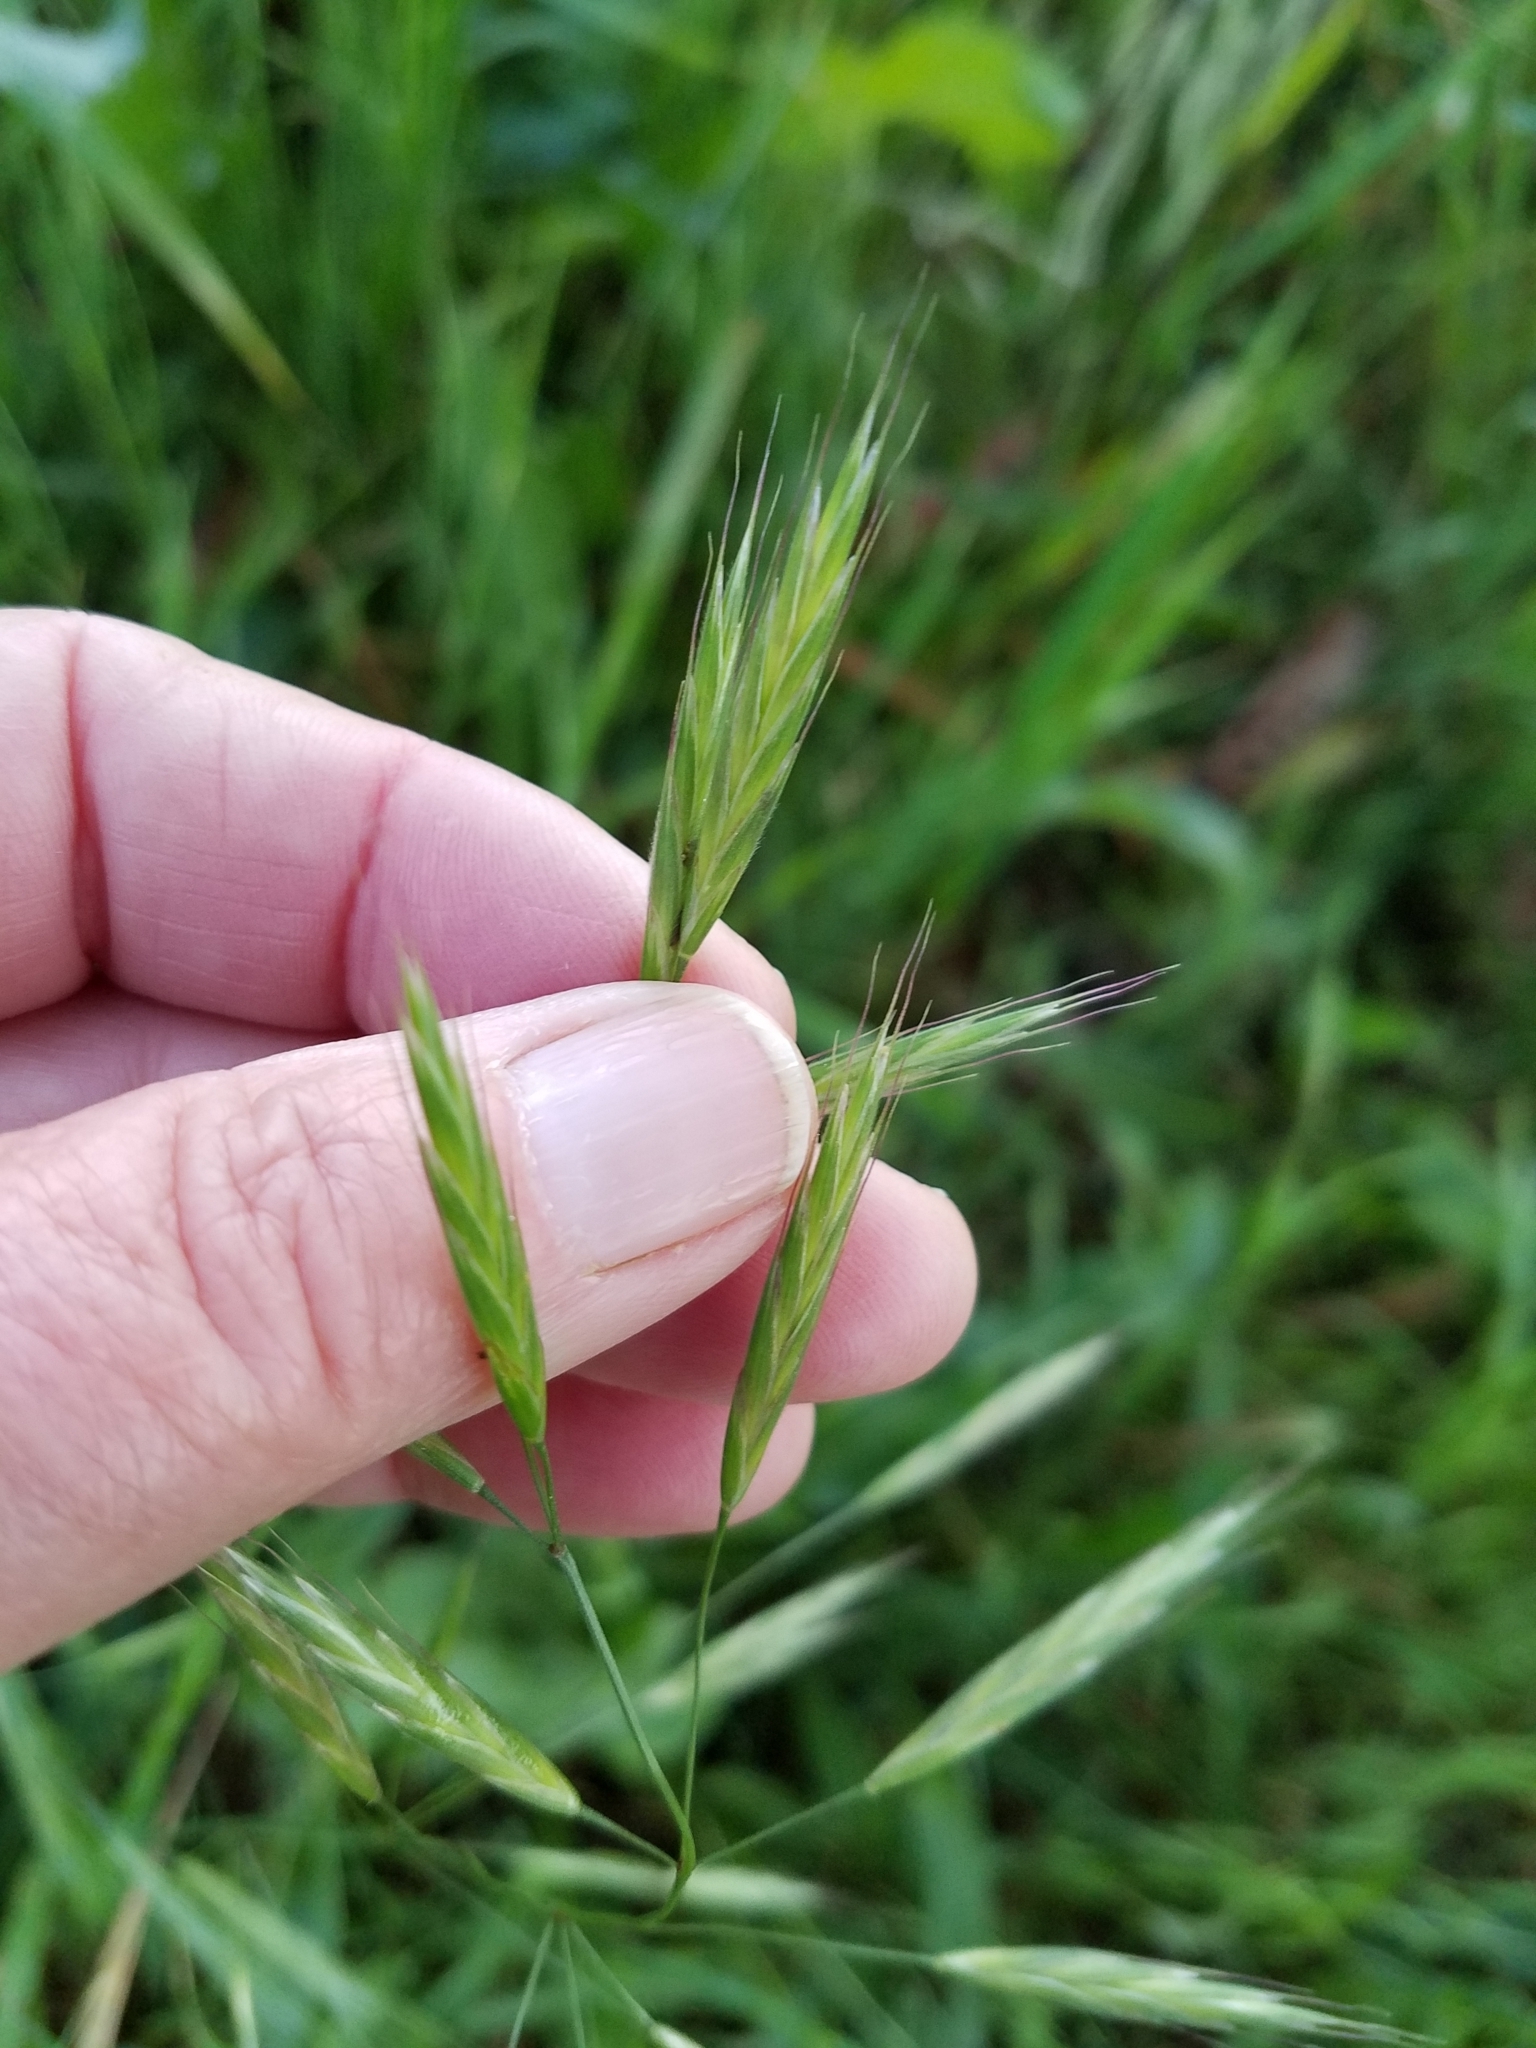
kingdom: Plantae
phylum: Tracheophyta
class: Liliopsida
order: Poales
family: Poaceae
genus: Bromus
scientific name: Bromus carinatus
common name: Mountain brome
